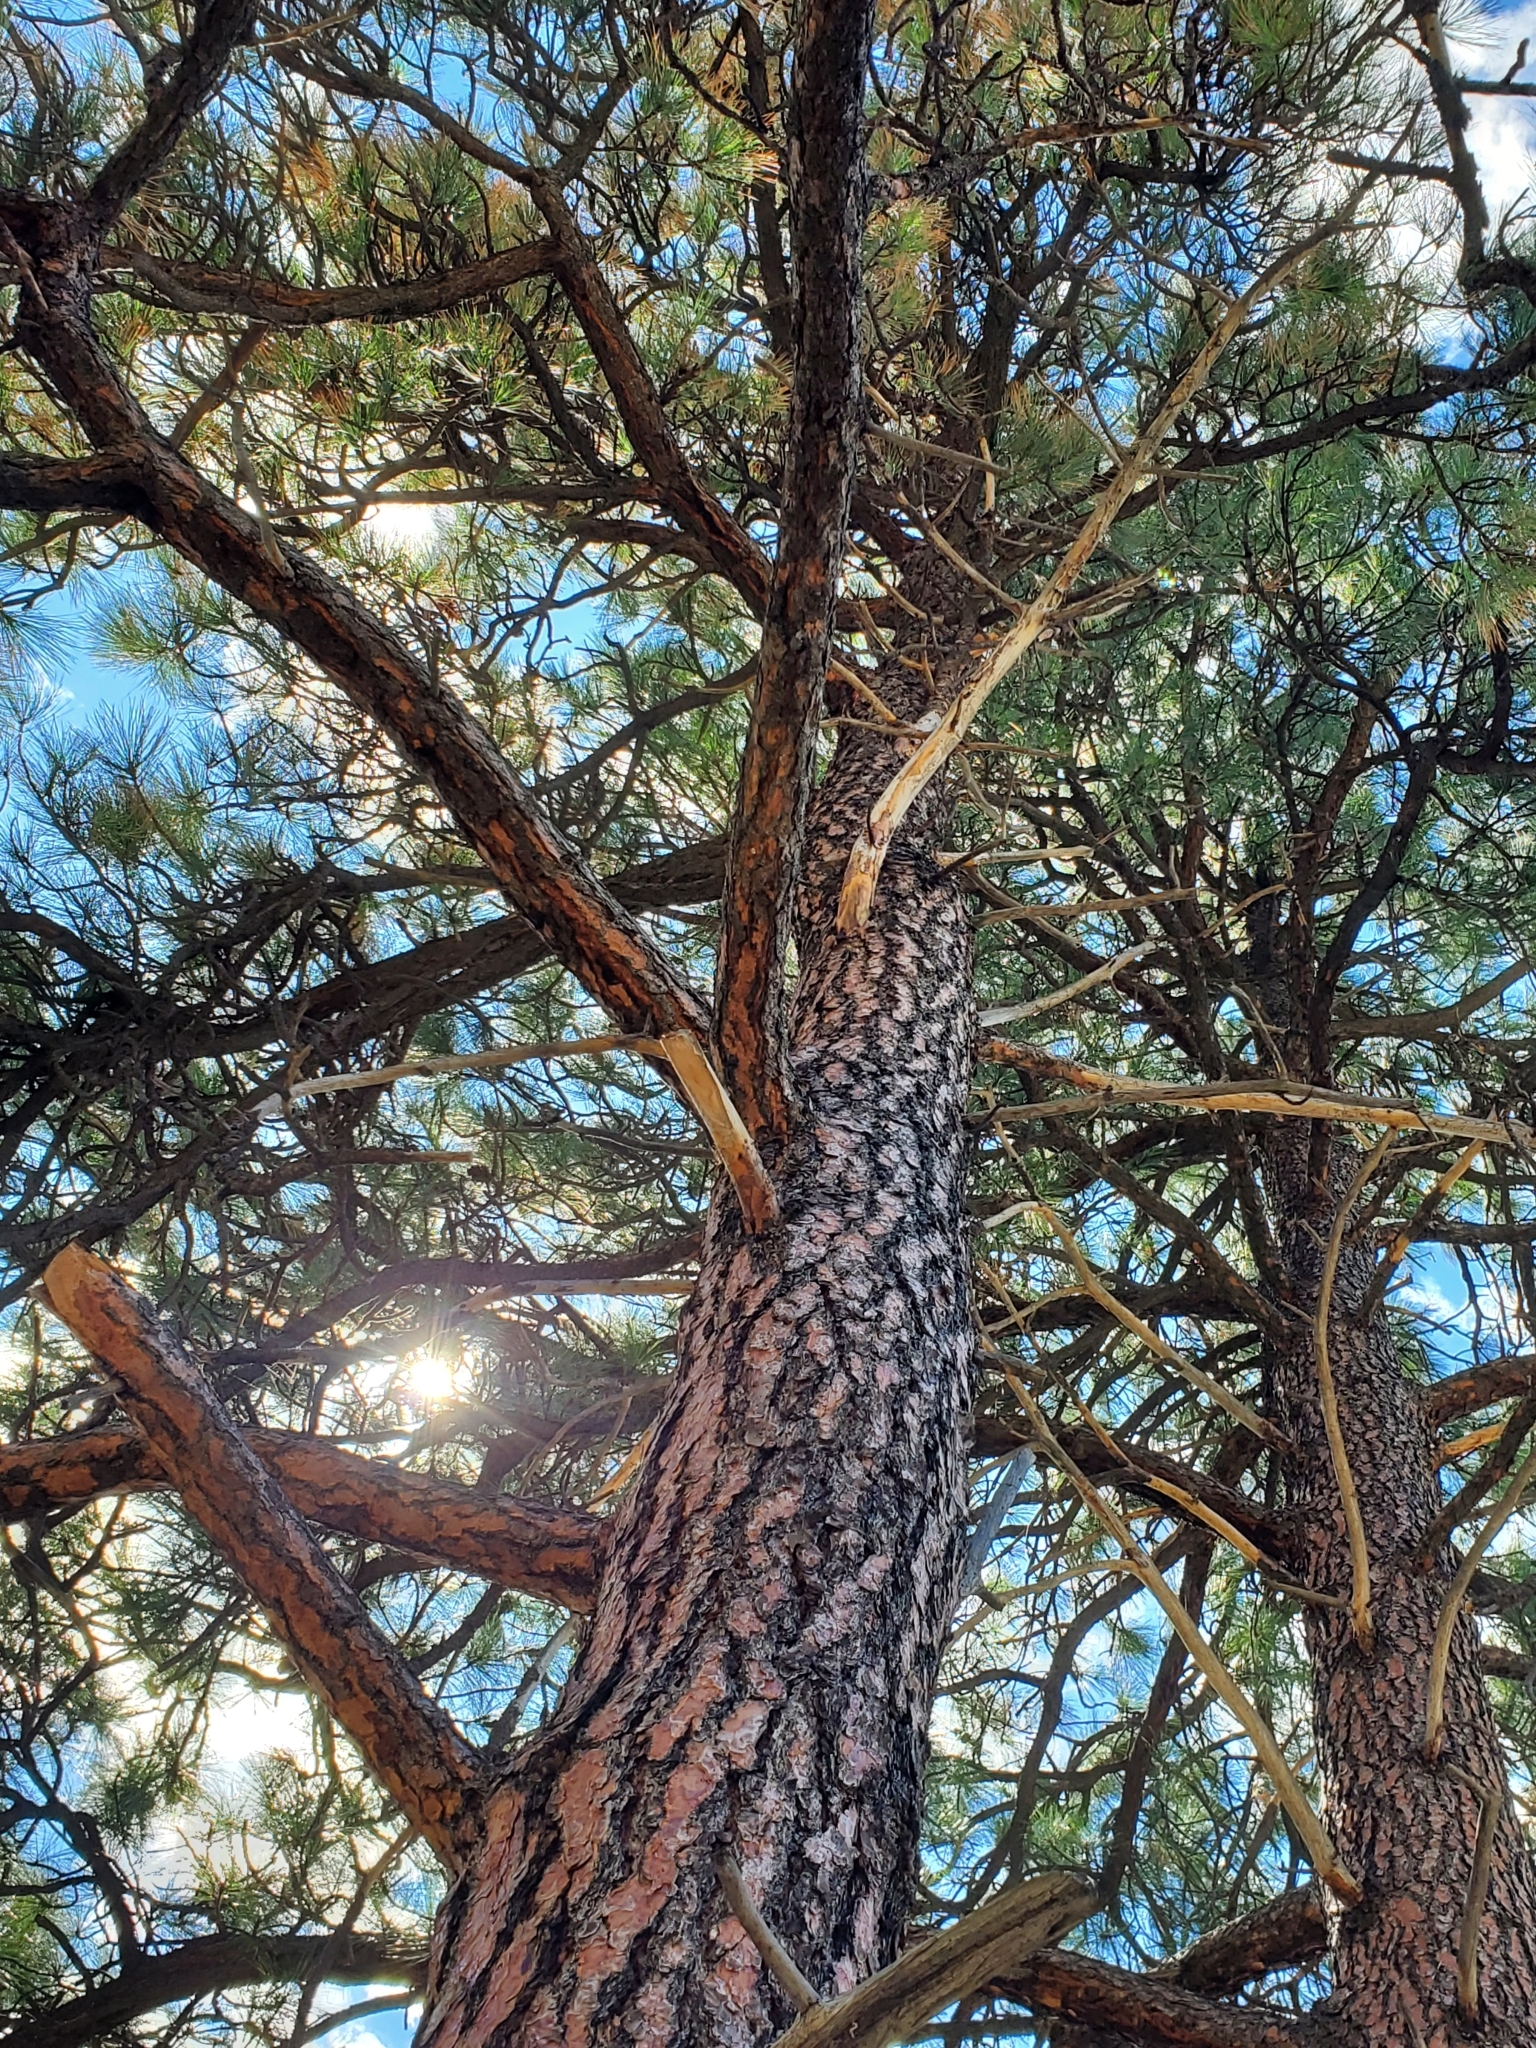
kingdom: Plantae
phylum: Tracheophyta
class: Pinopsida
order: Pinales
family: Pinaceae
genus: Pinus
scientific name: Pinus ponderosa
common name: Western yellow-pine
